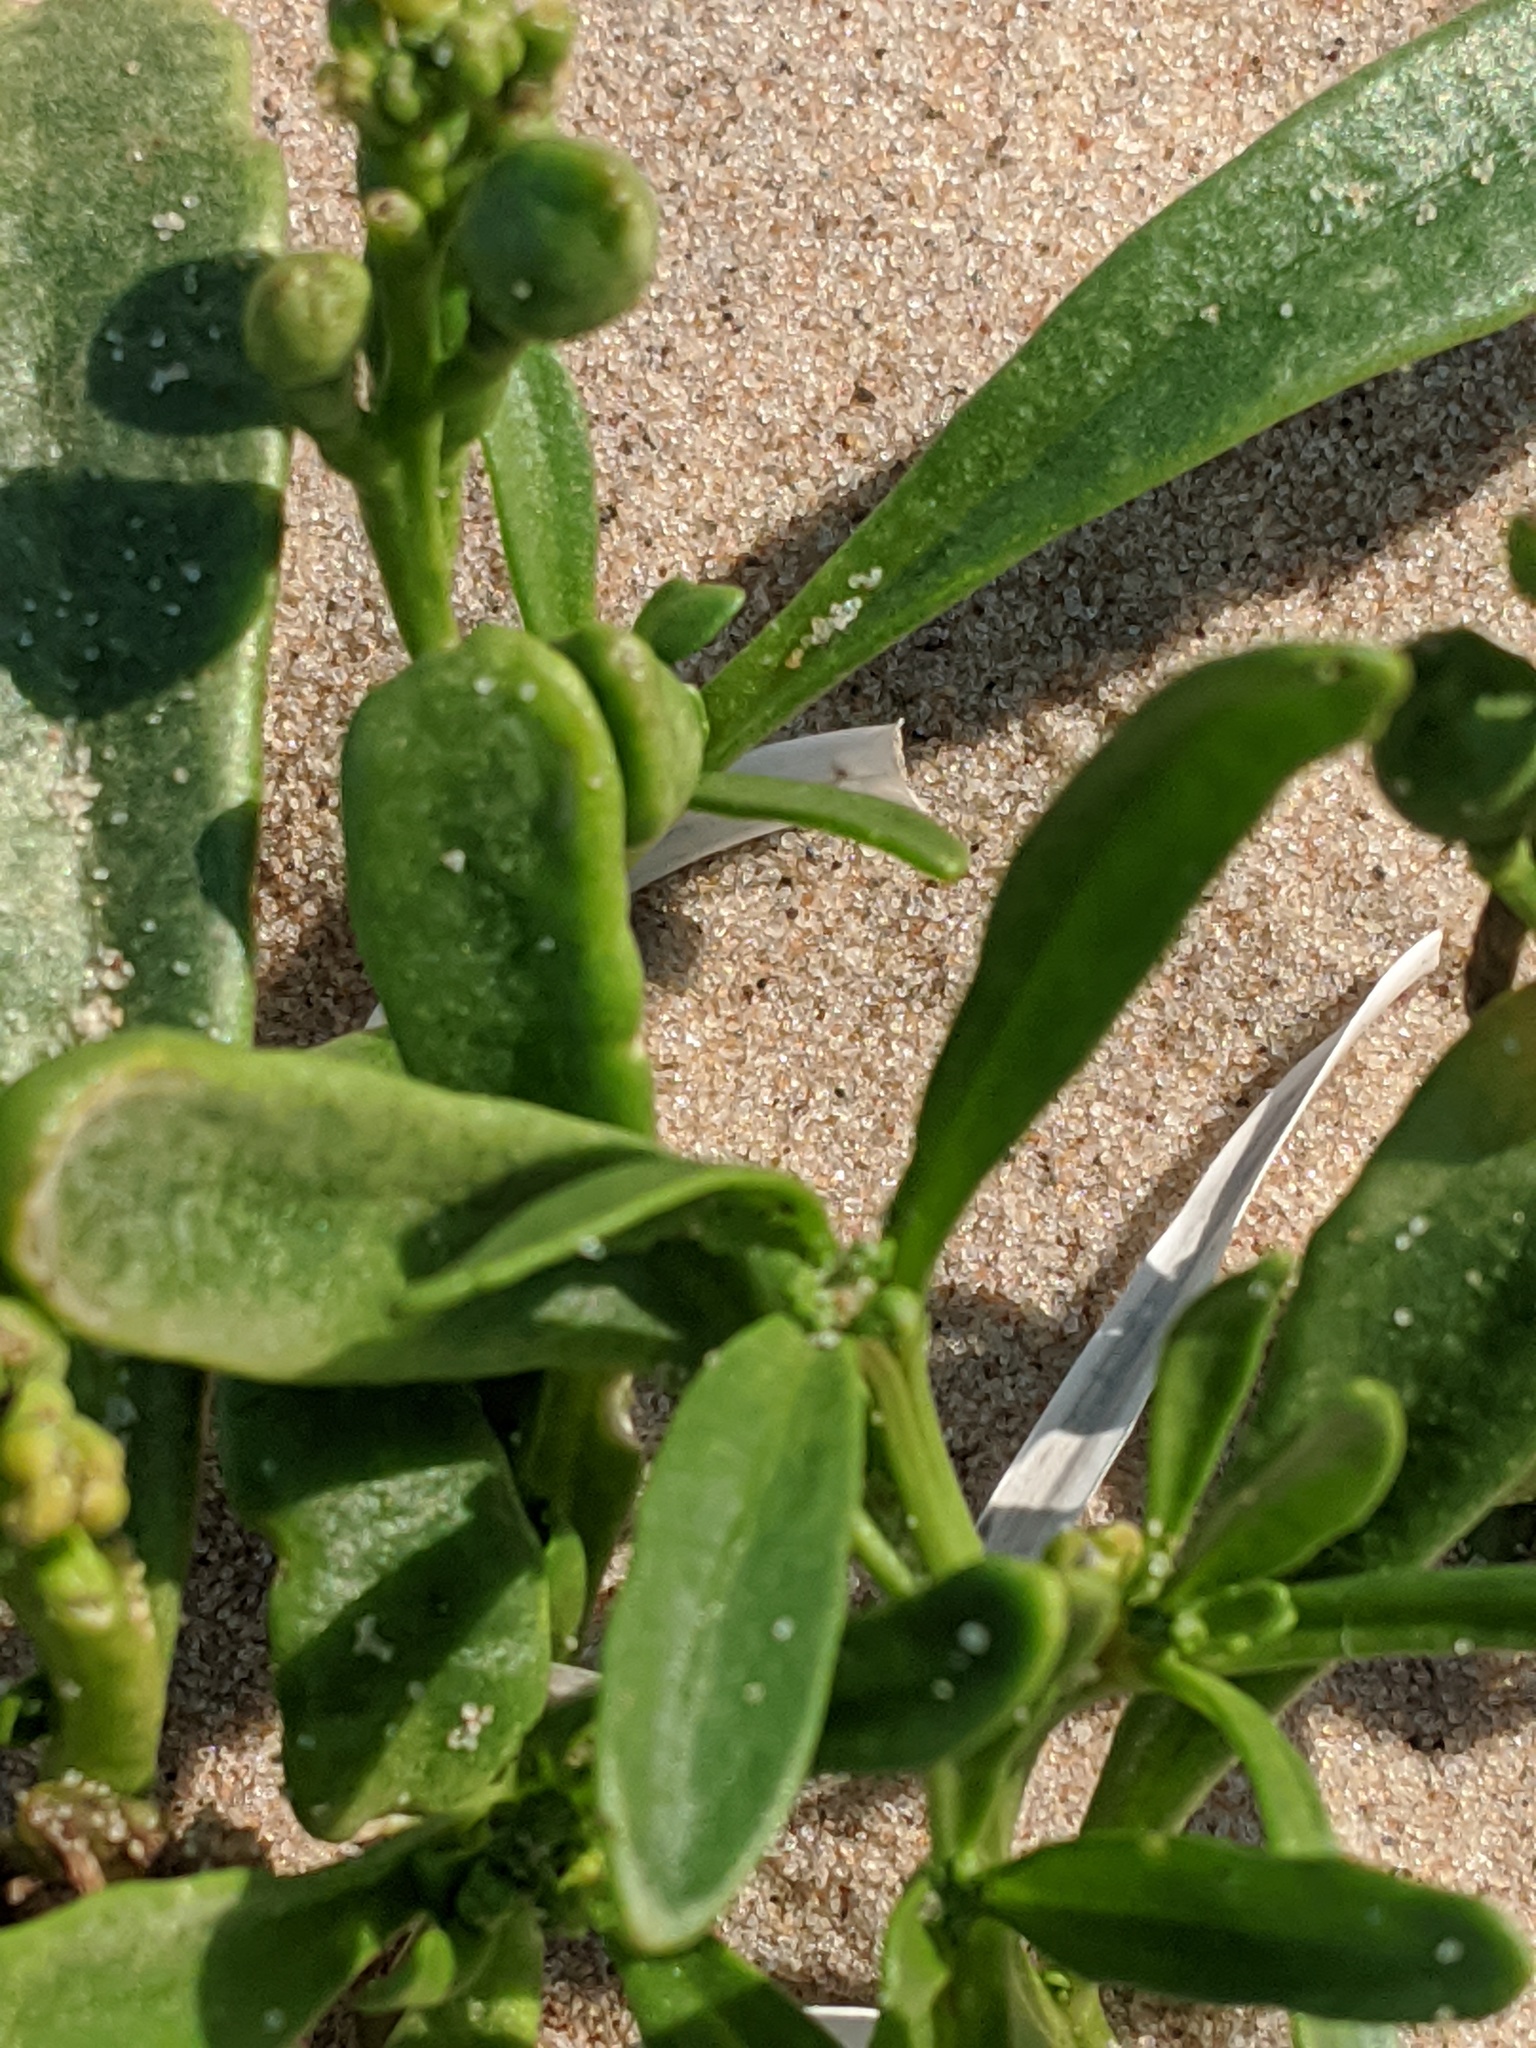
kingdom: Plantae
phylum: Tracheophyta
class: Magnoliopsida
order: Brassicales
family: Brassicaceae
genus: Cakile
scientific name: Cakile edentula
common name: American sea rocket
